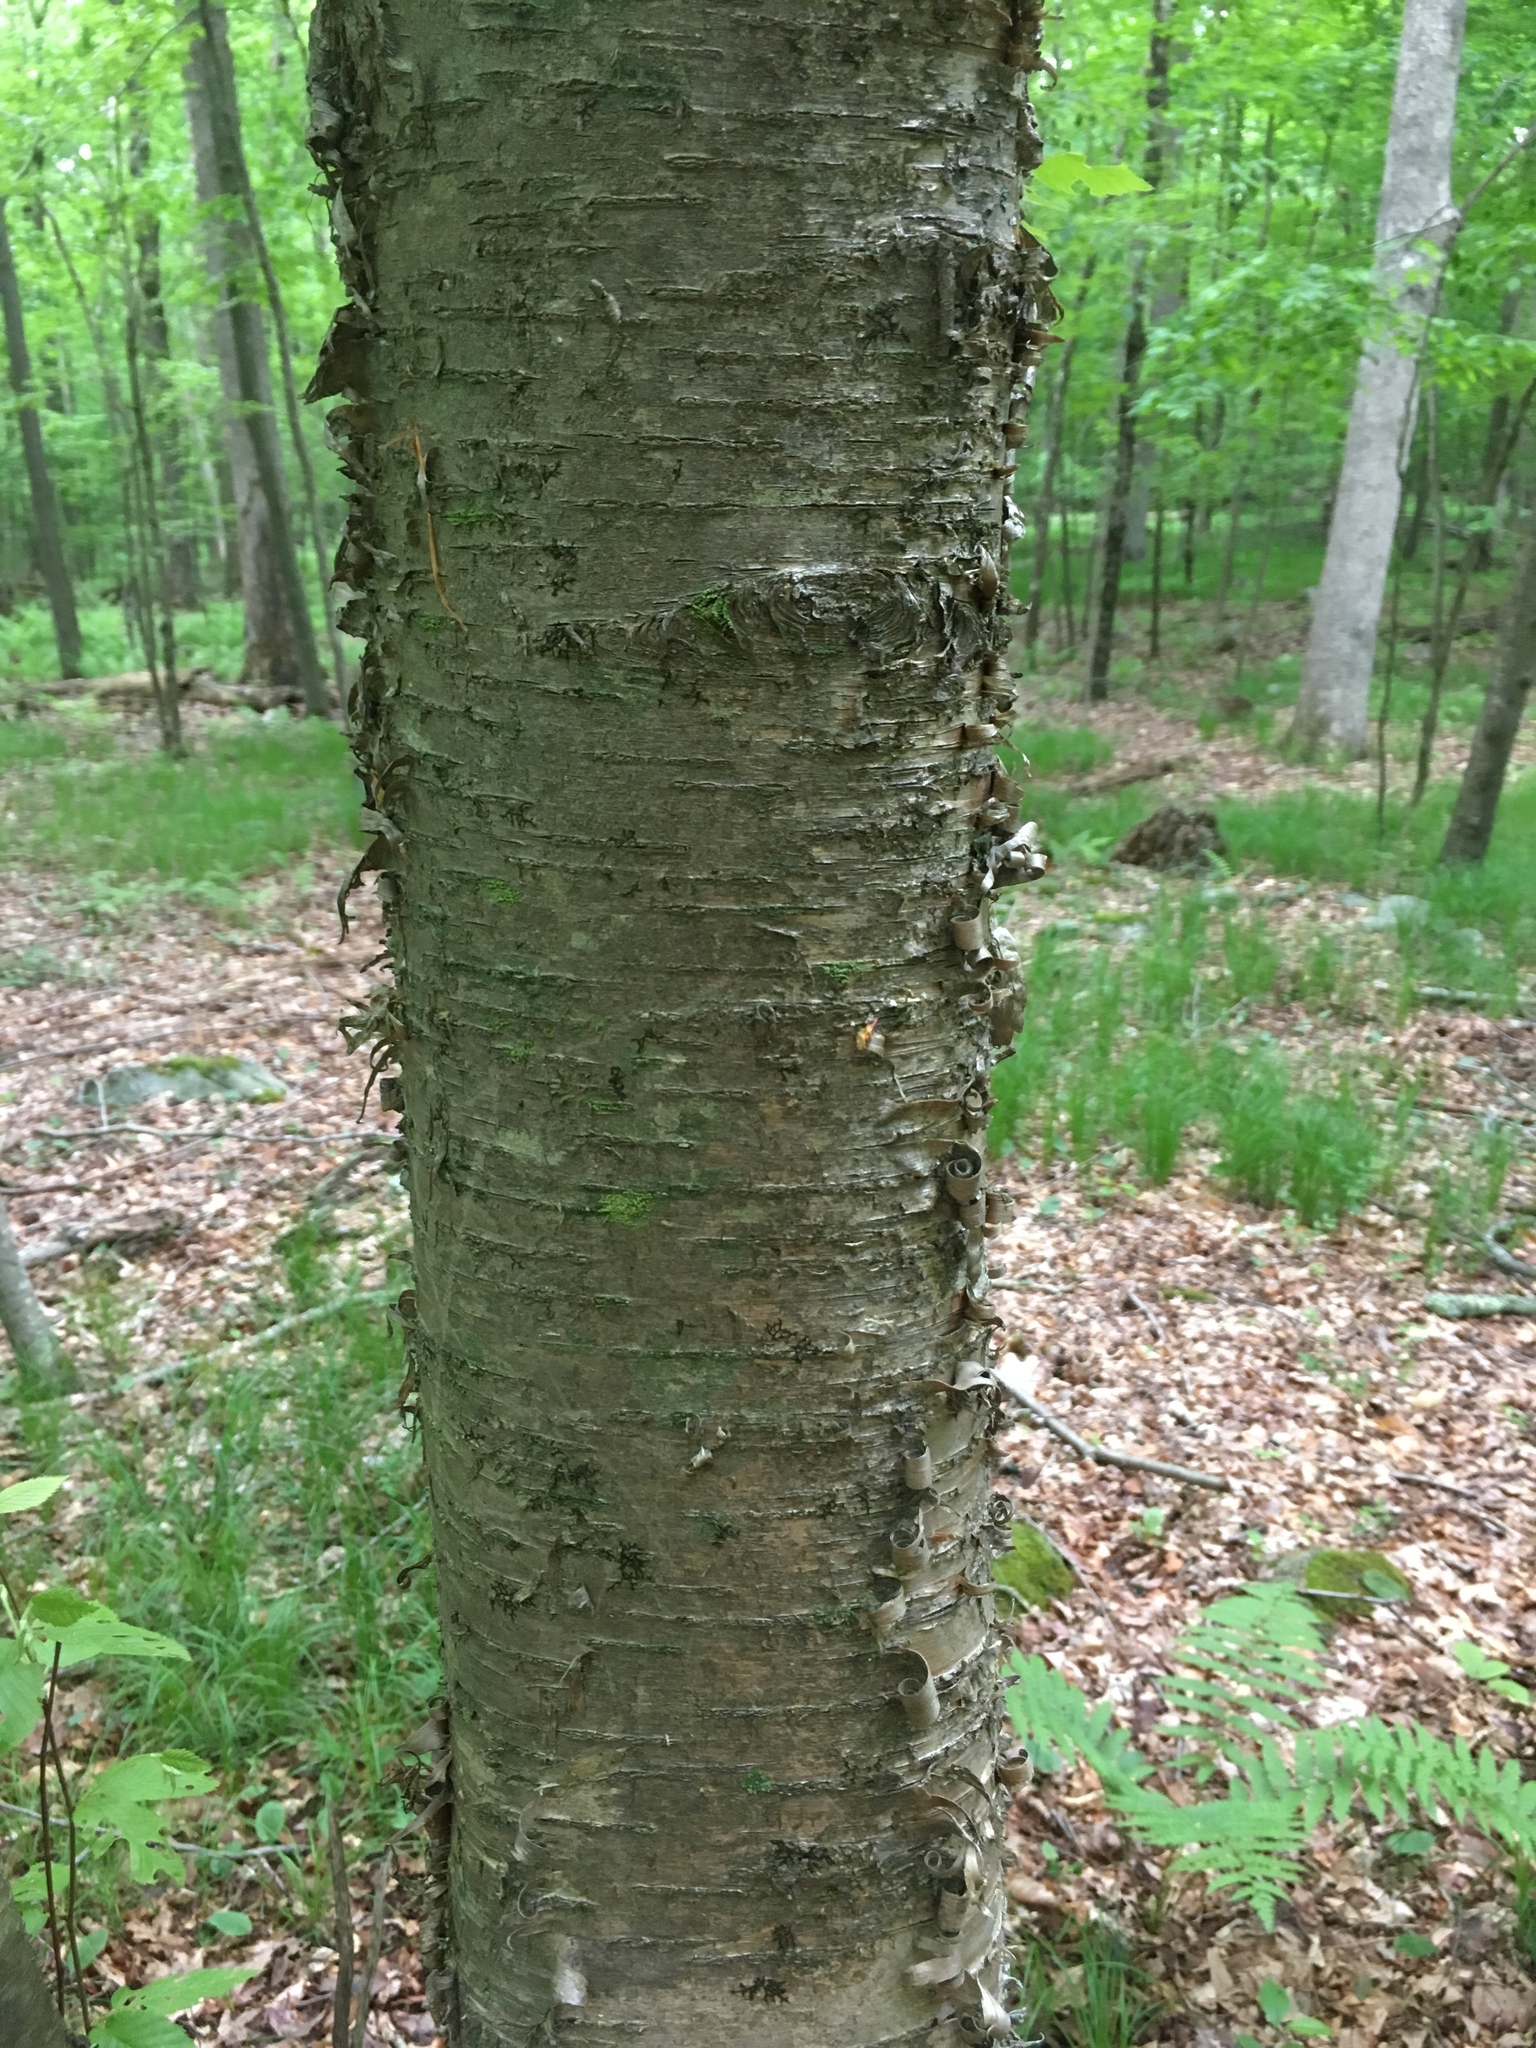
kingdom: Plantae
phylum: Tracheophyta
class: Magnoliopsida
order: Fagales
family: Betulaceae
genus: Betula
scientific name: Betula alleghaniensis
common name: Yellow birch
